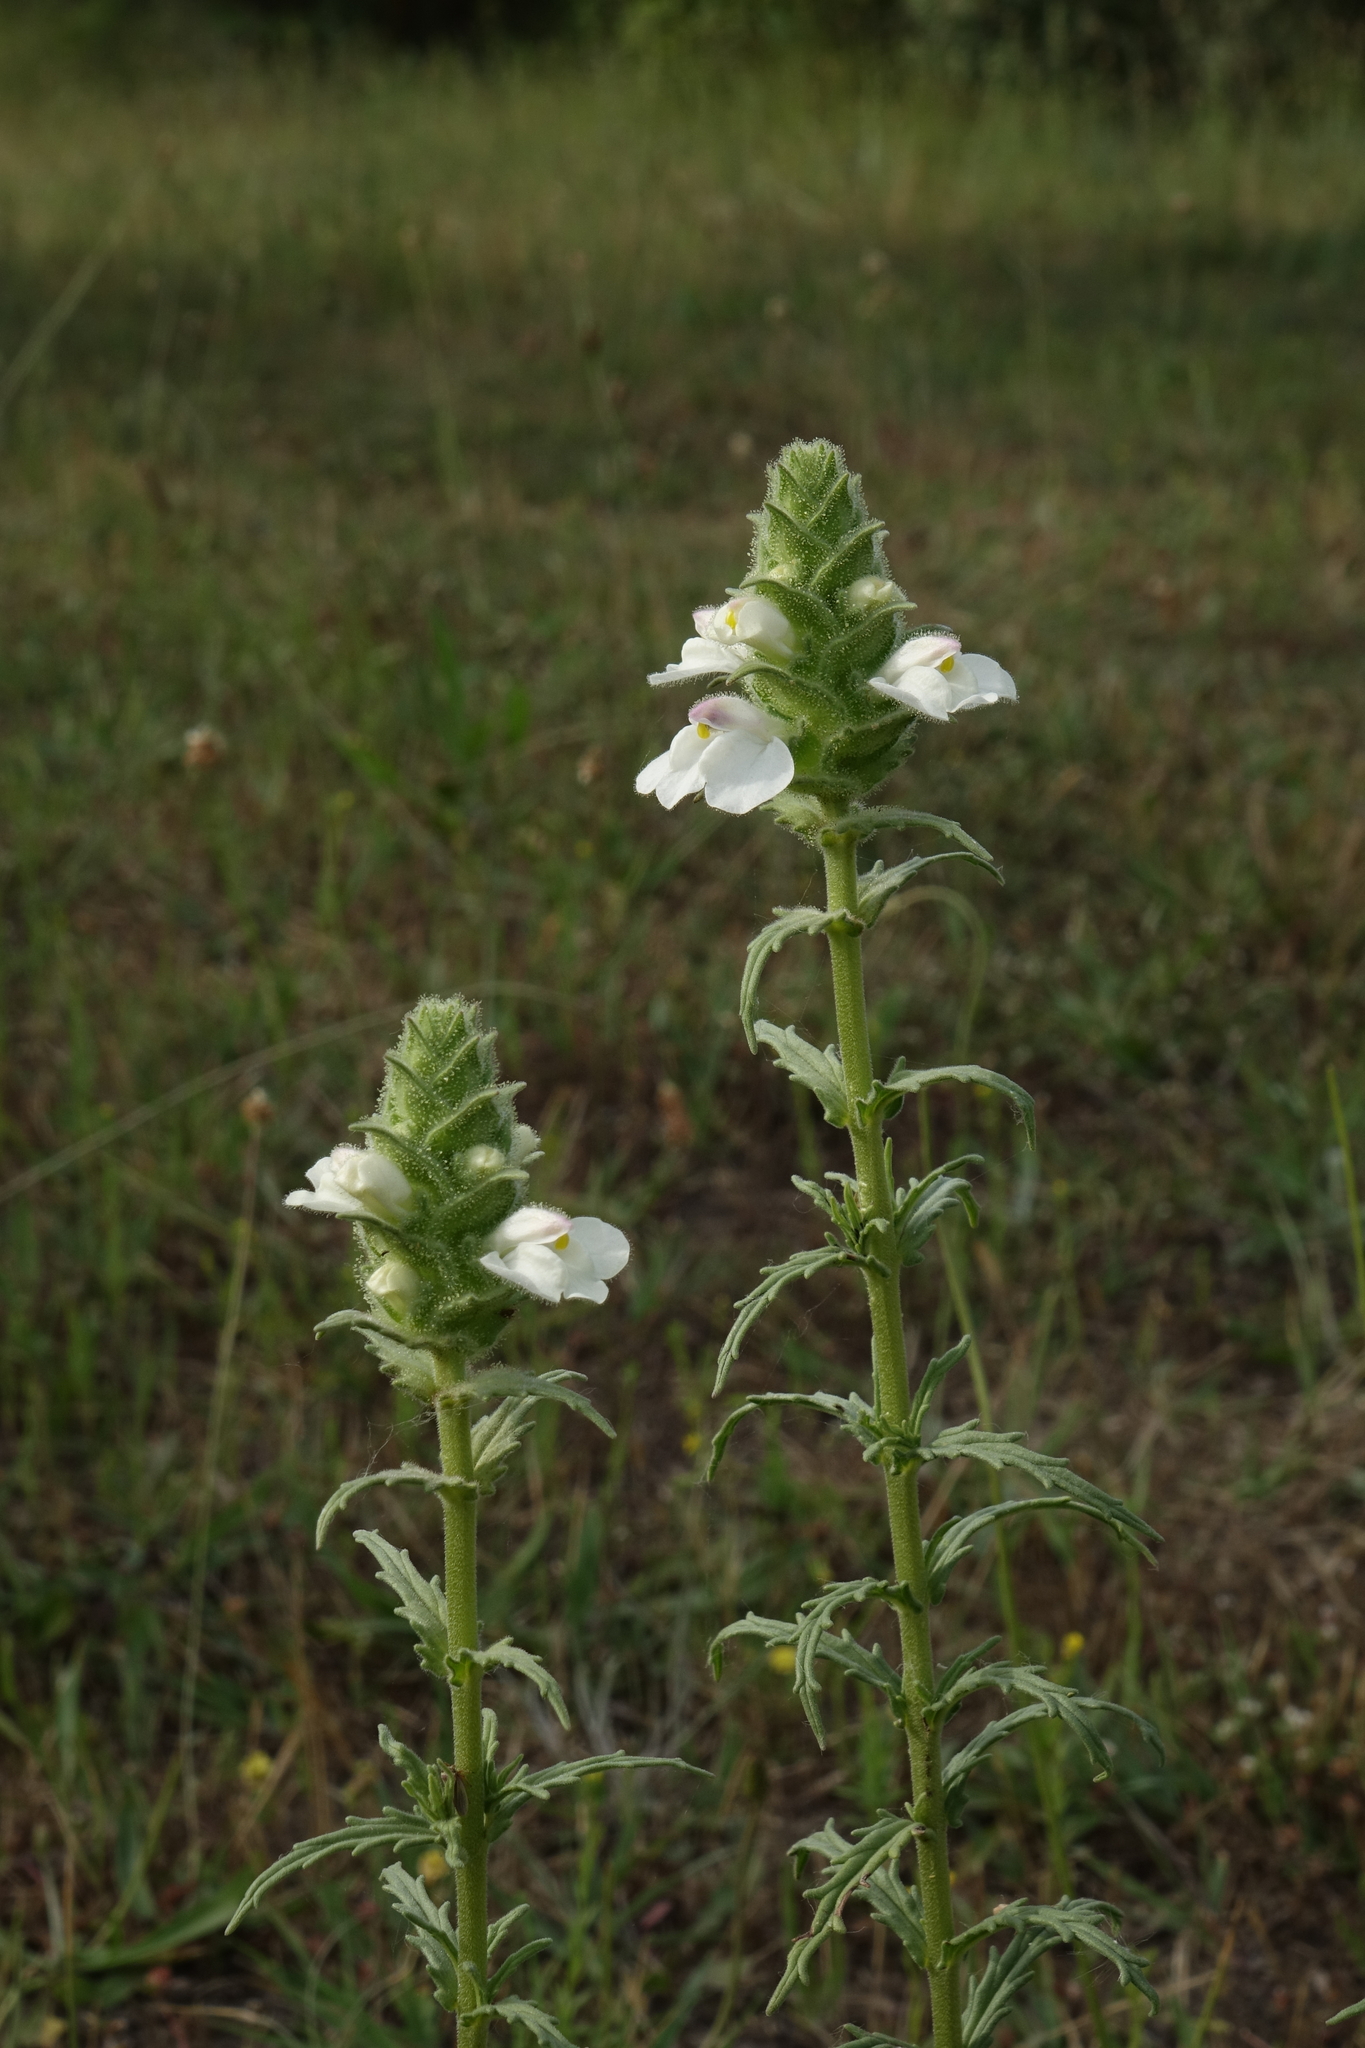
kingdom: Plantae
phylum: Tracheophyta
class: Magnoliopsida
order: Lamiales
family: Orobanchaceae
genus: Bellardia
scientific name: Bellardia trixago
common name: Mediterranean lineseed
